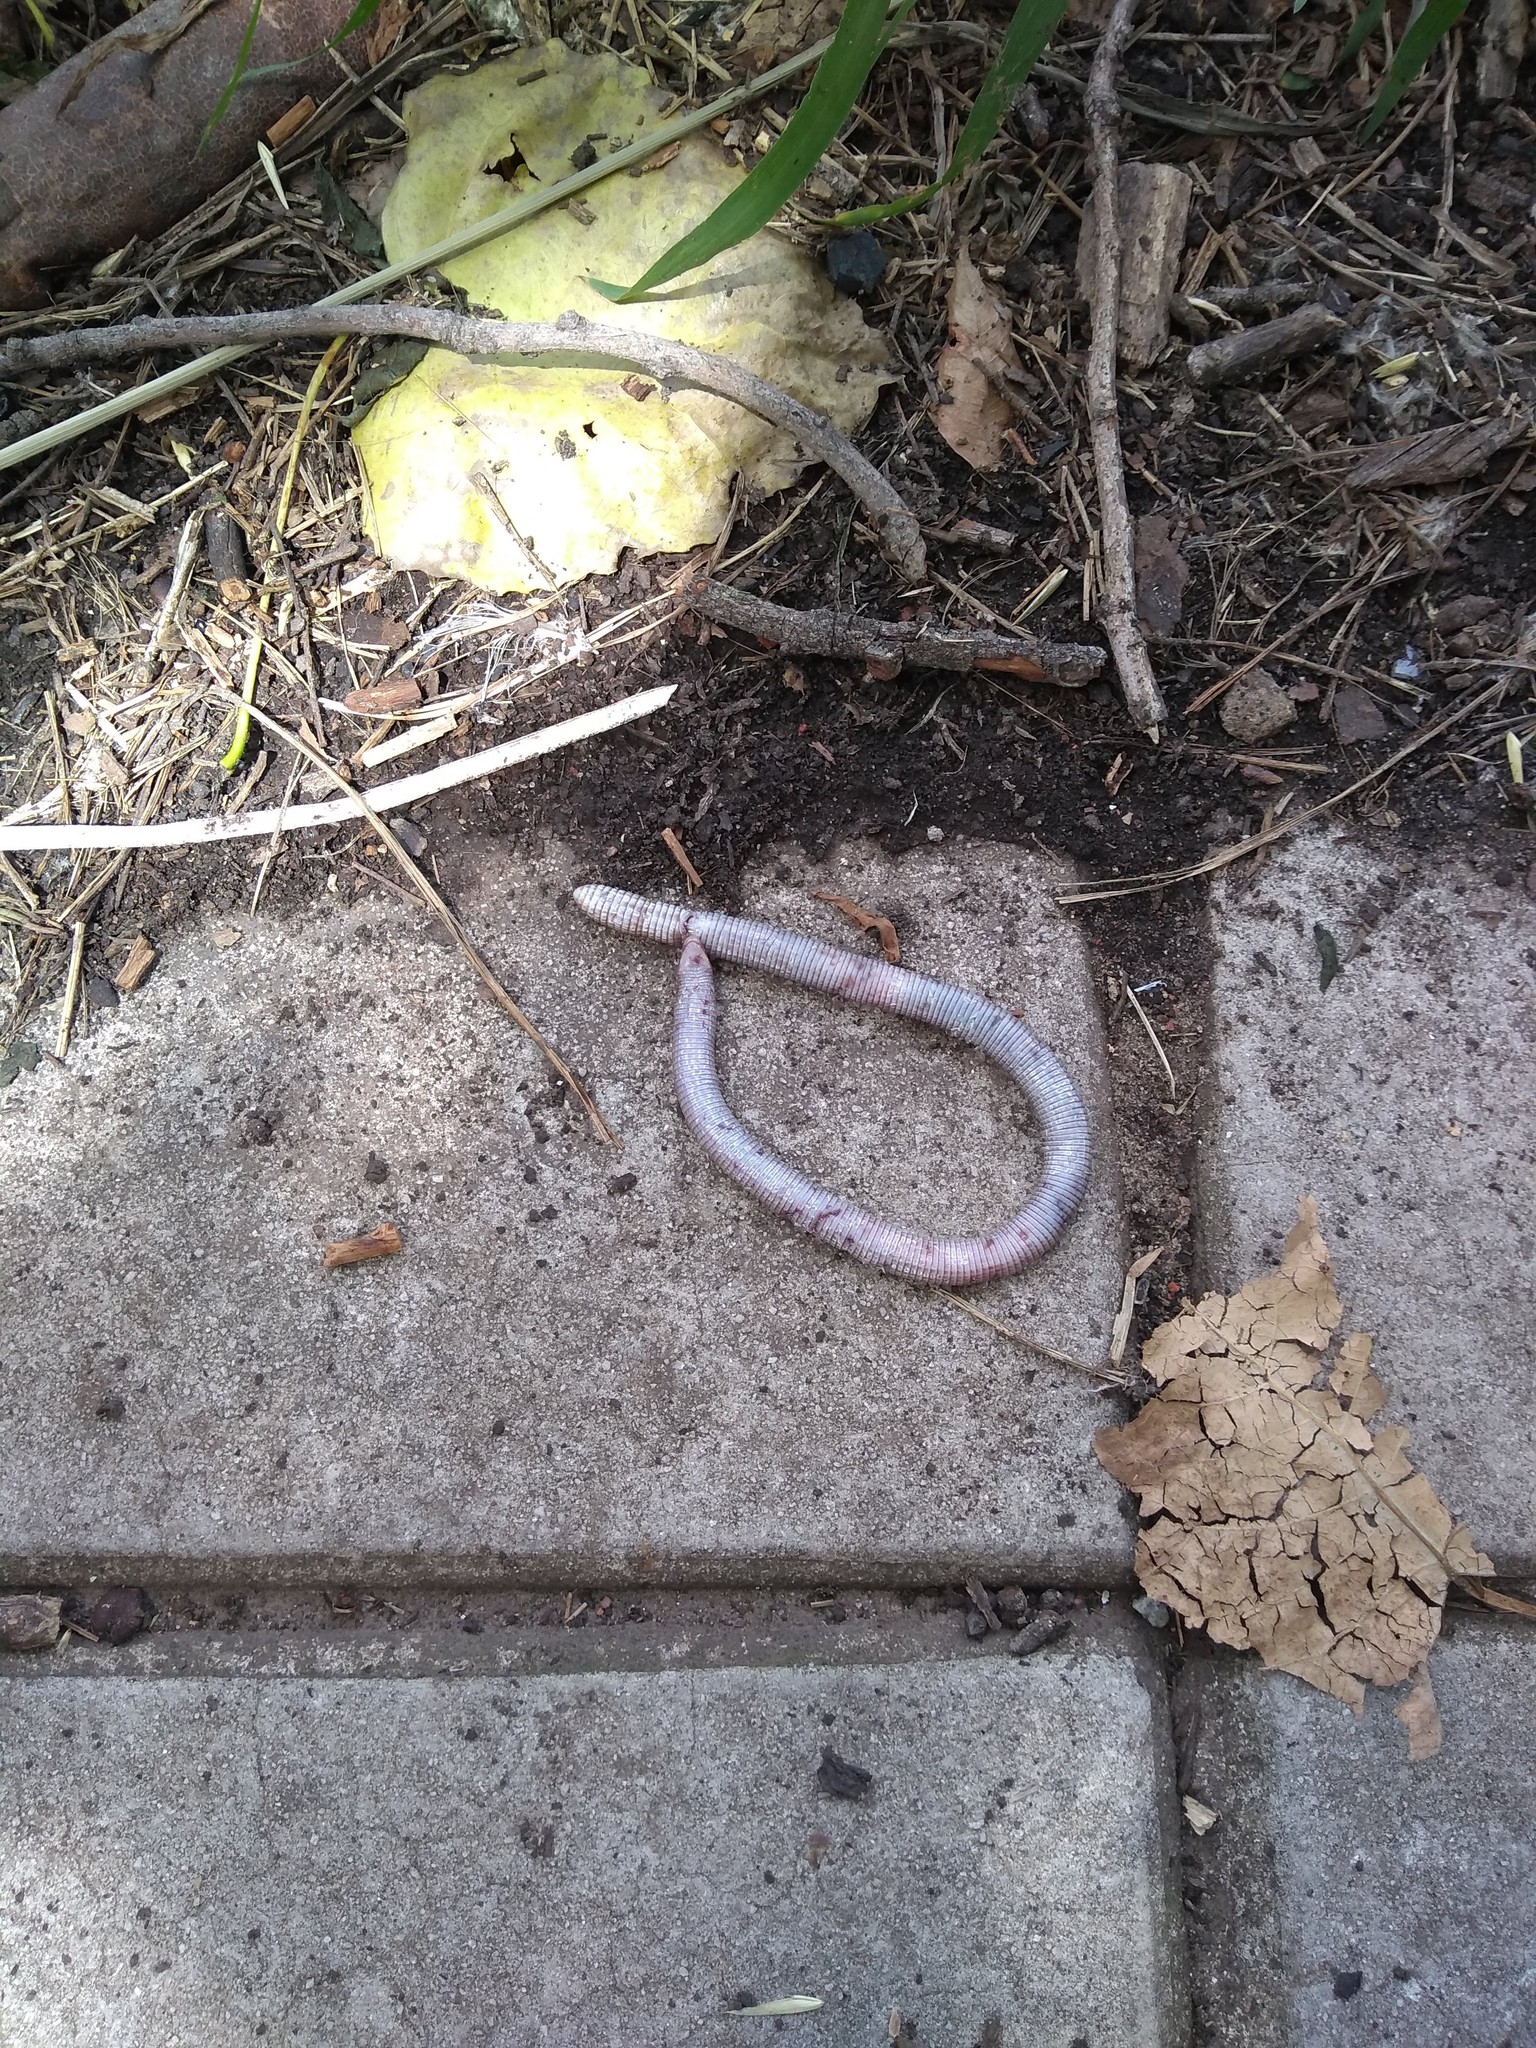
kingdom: Animalia
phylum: Chordata
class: Squamata
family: Amphisbaenidae
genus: Amphisbaena
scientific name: Amphisbaena darwinii
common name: Darwin's ringed worm lizard
